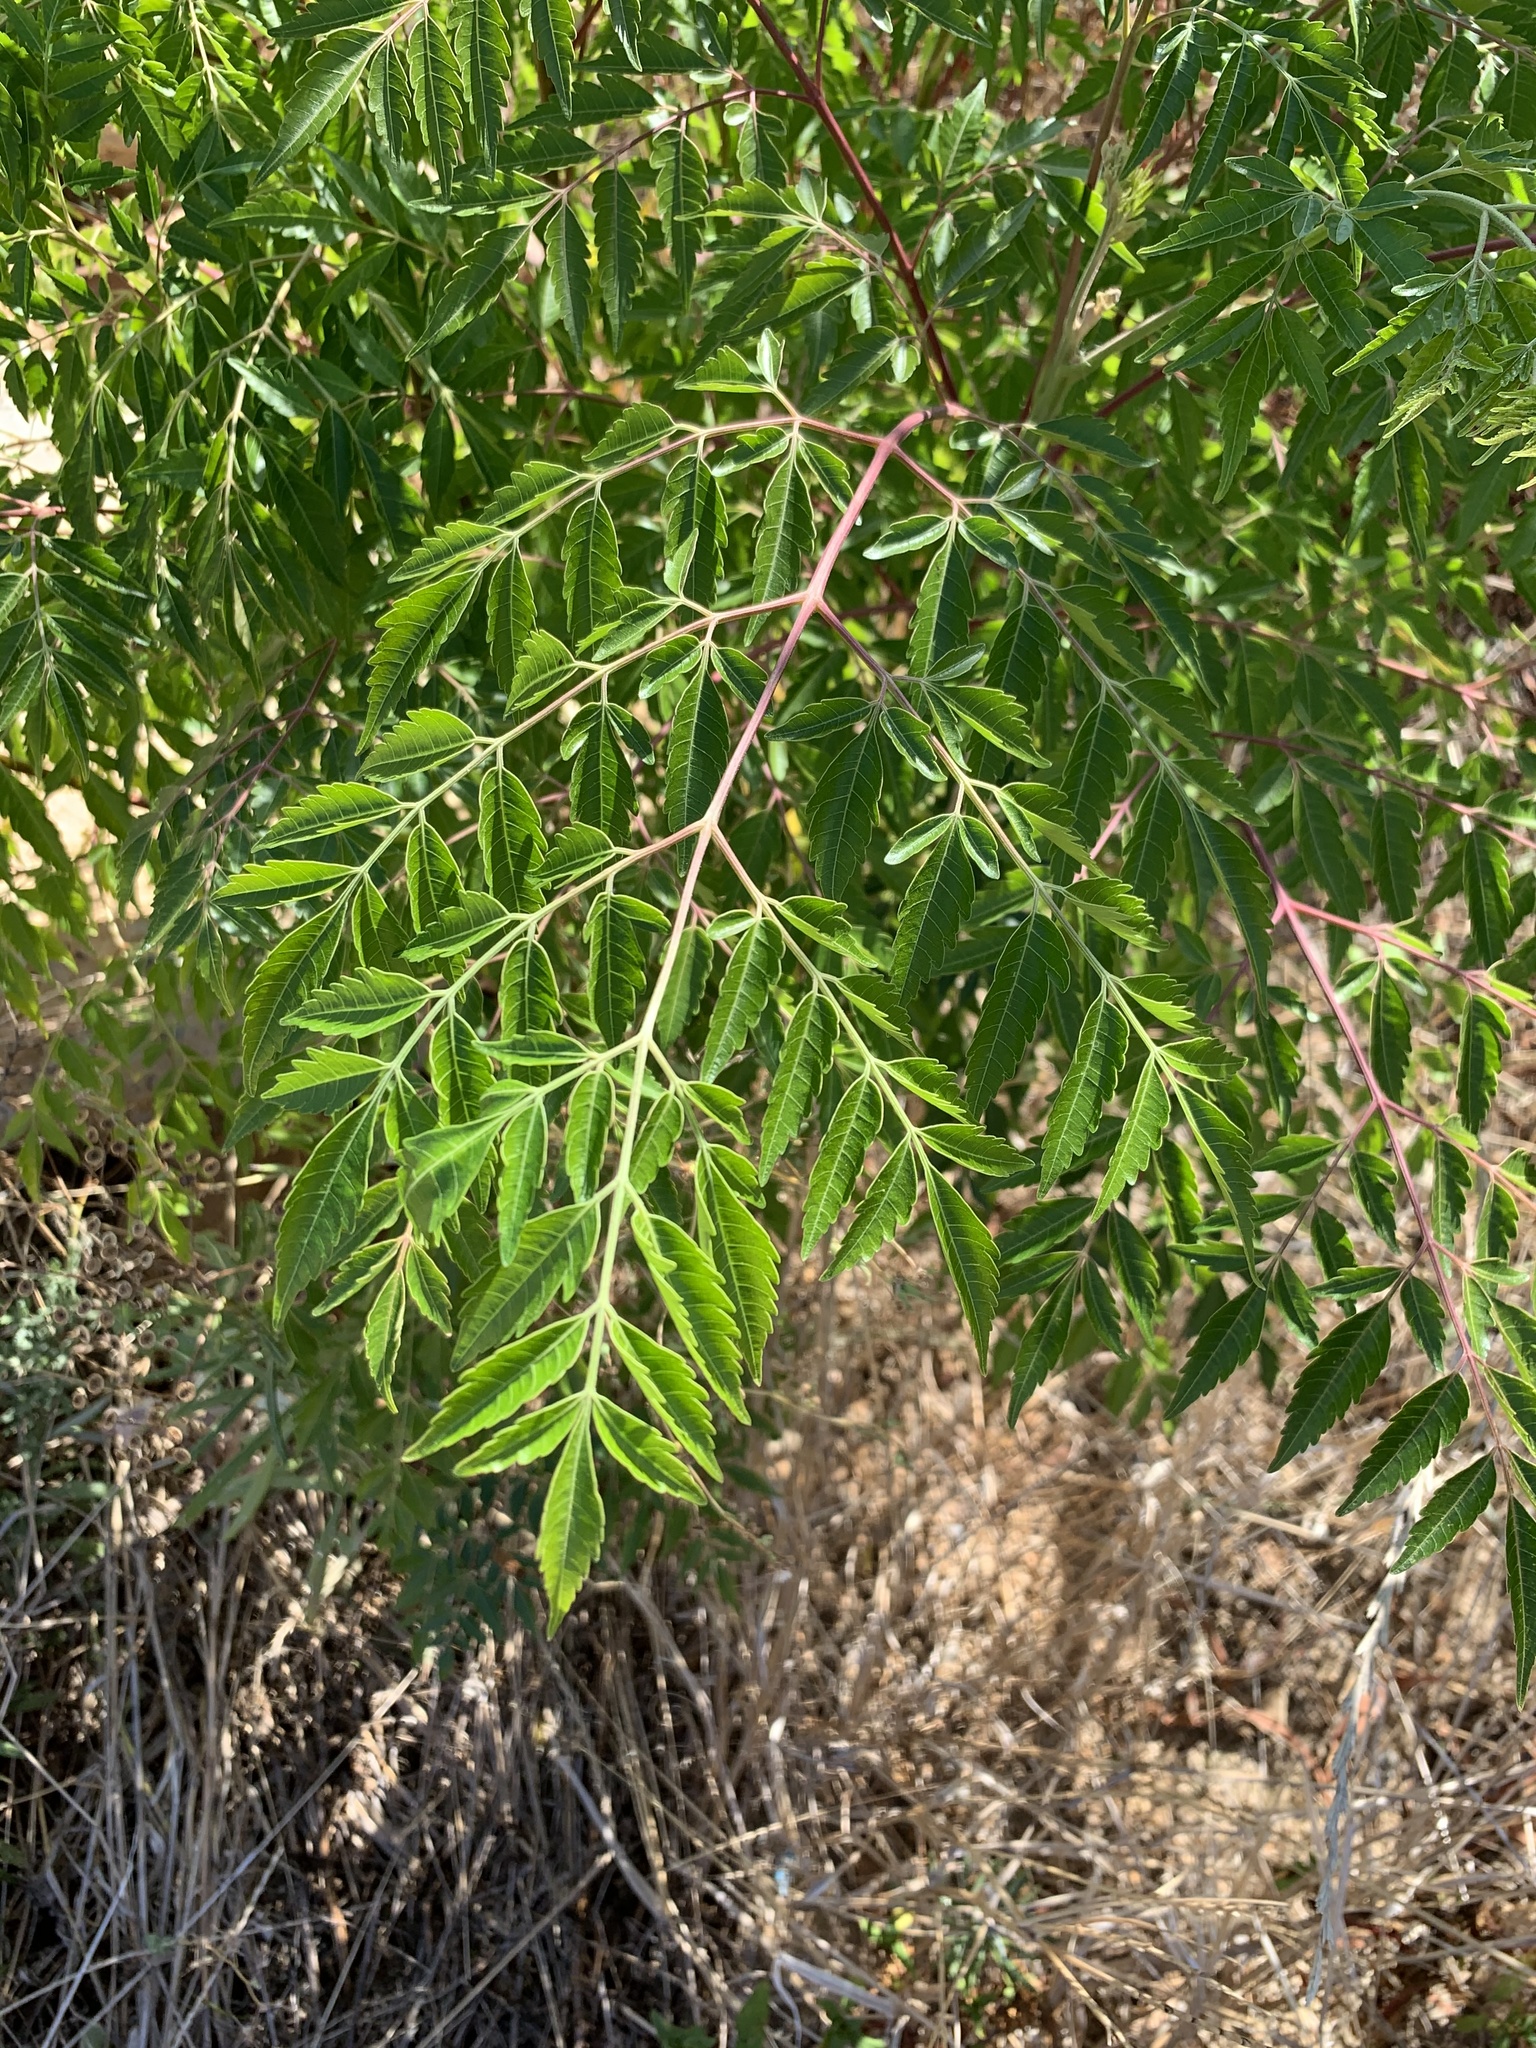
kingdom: Plantae
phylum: Tracheophyta
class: Magnoliopsida
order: Sapindales
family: Meliaceae
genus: Melia
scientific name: Melia azedarach
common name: Chinaberrytree
